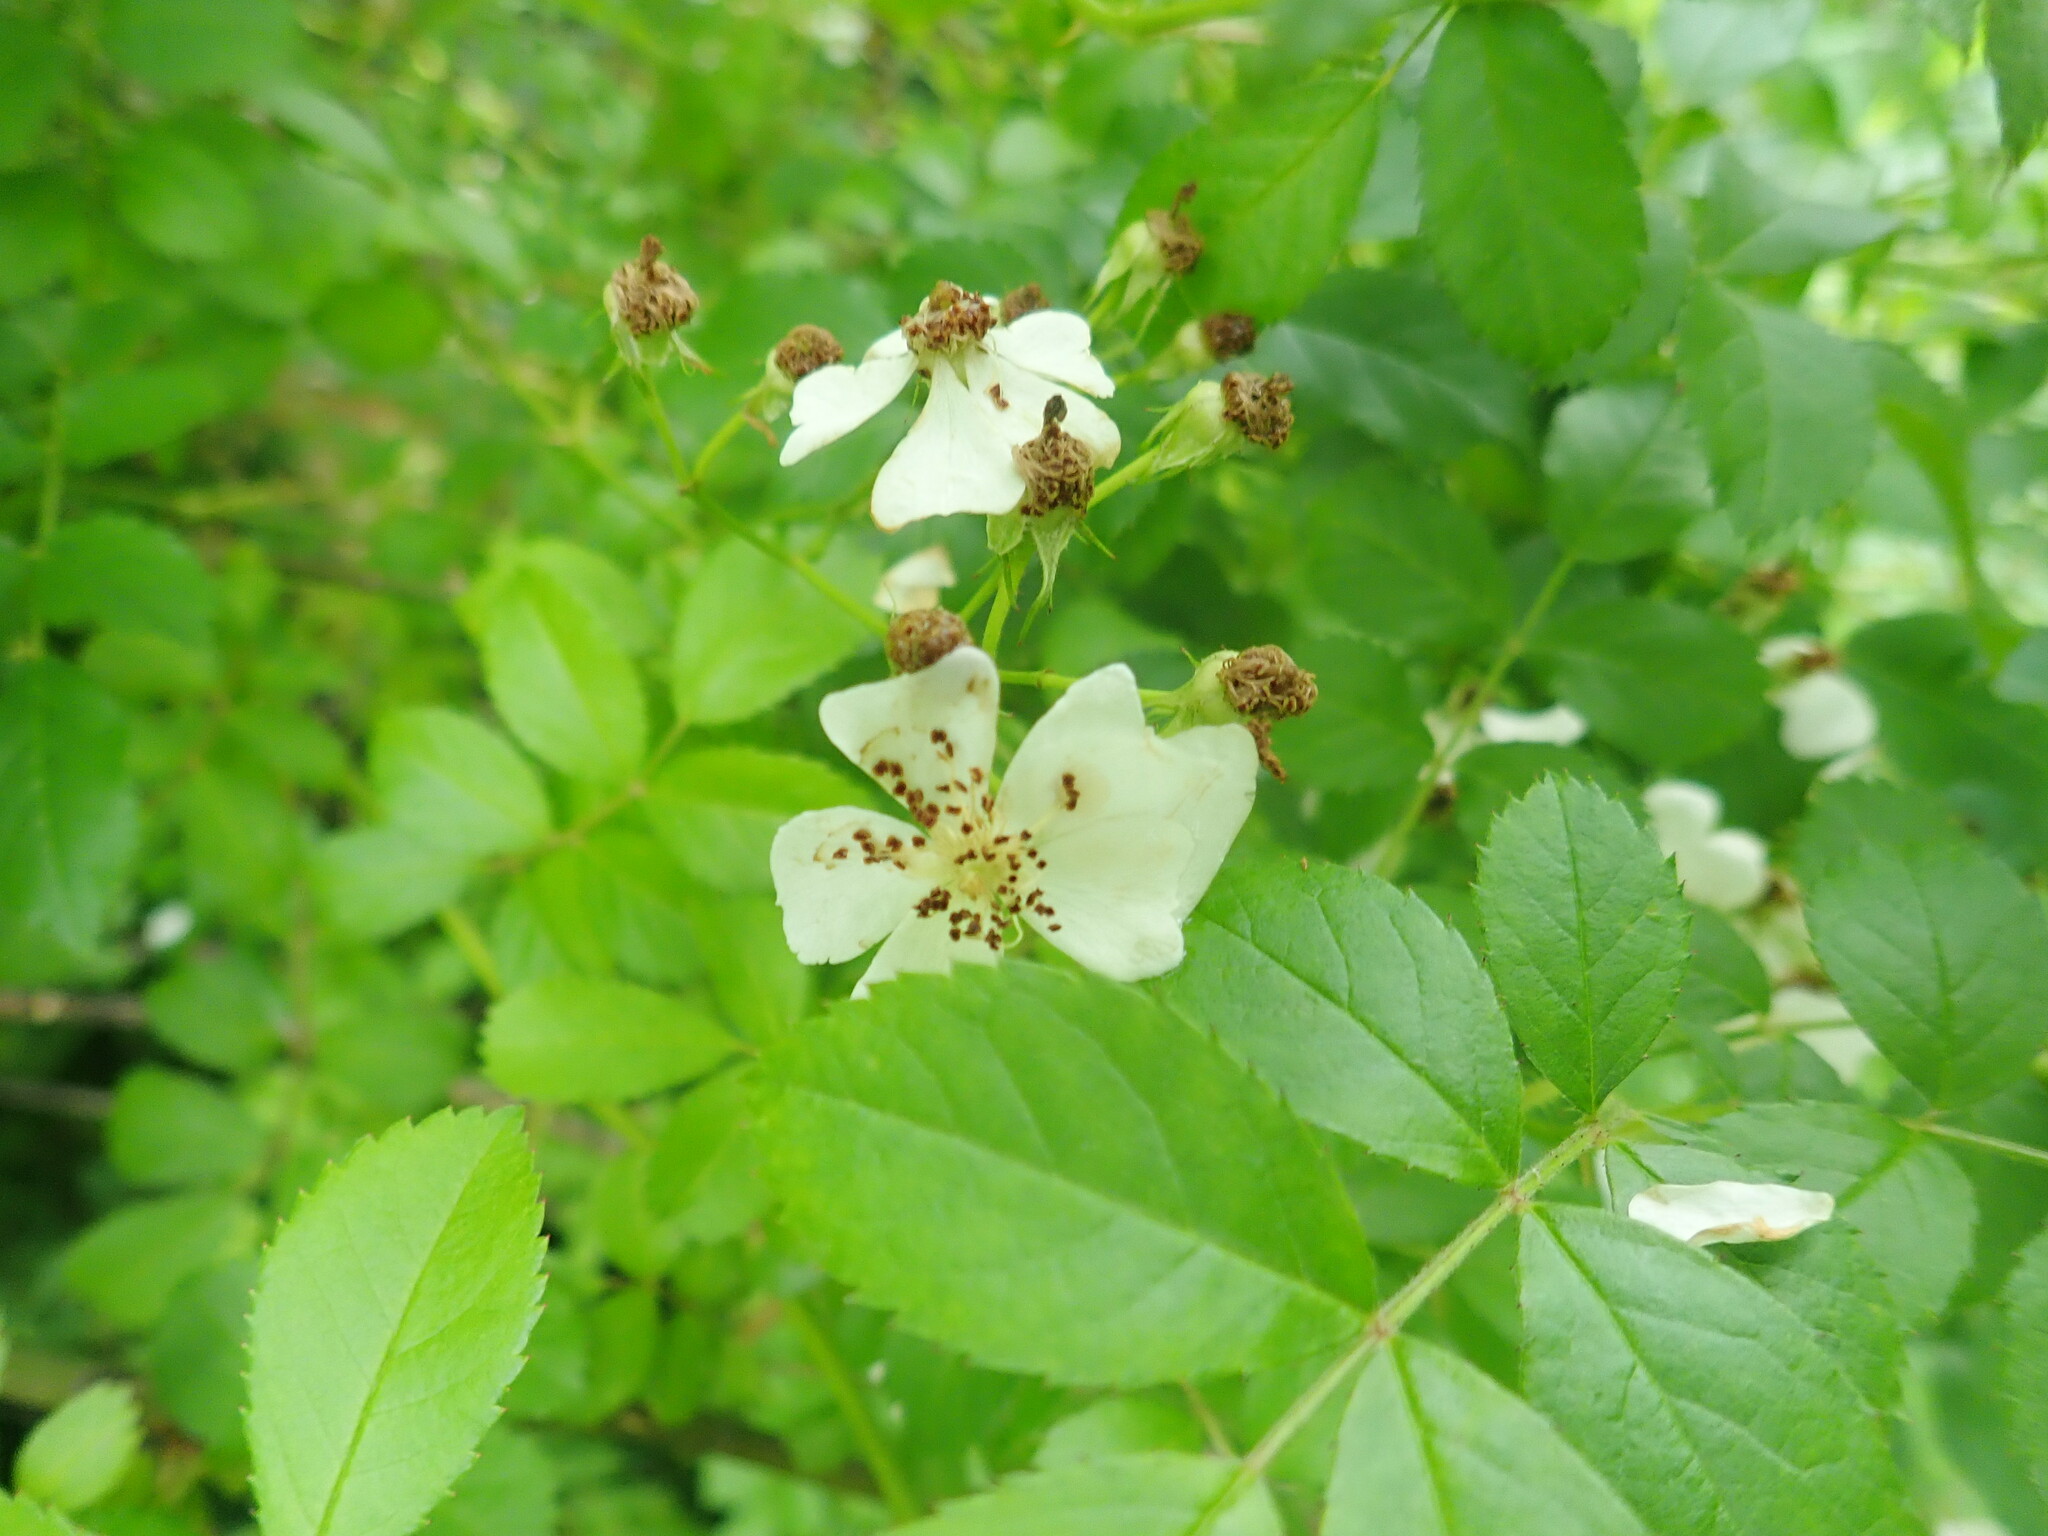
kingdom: Plantae
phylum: Tracheophyta
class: Magnoliopsida
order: Rosales
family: Rosaceae
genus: Rosa
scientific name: Rosa multiflora
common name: Multiflora rose
